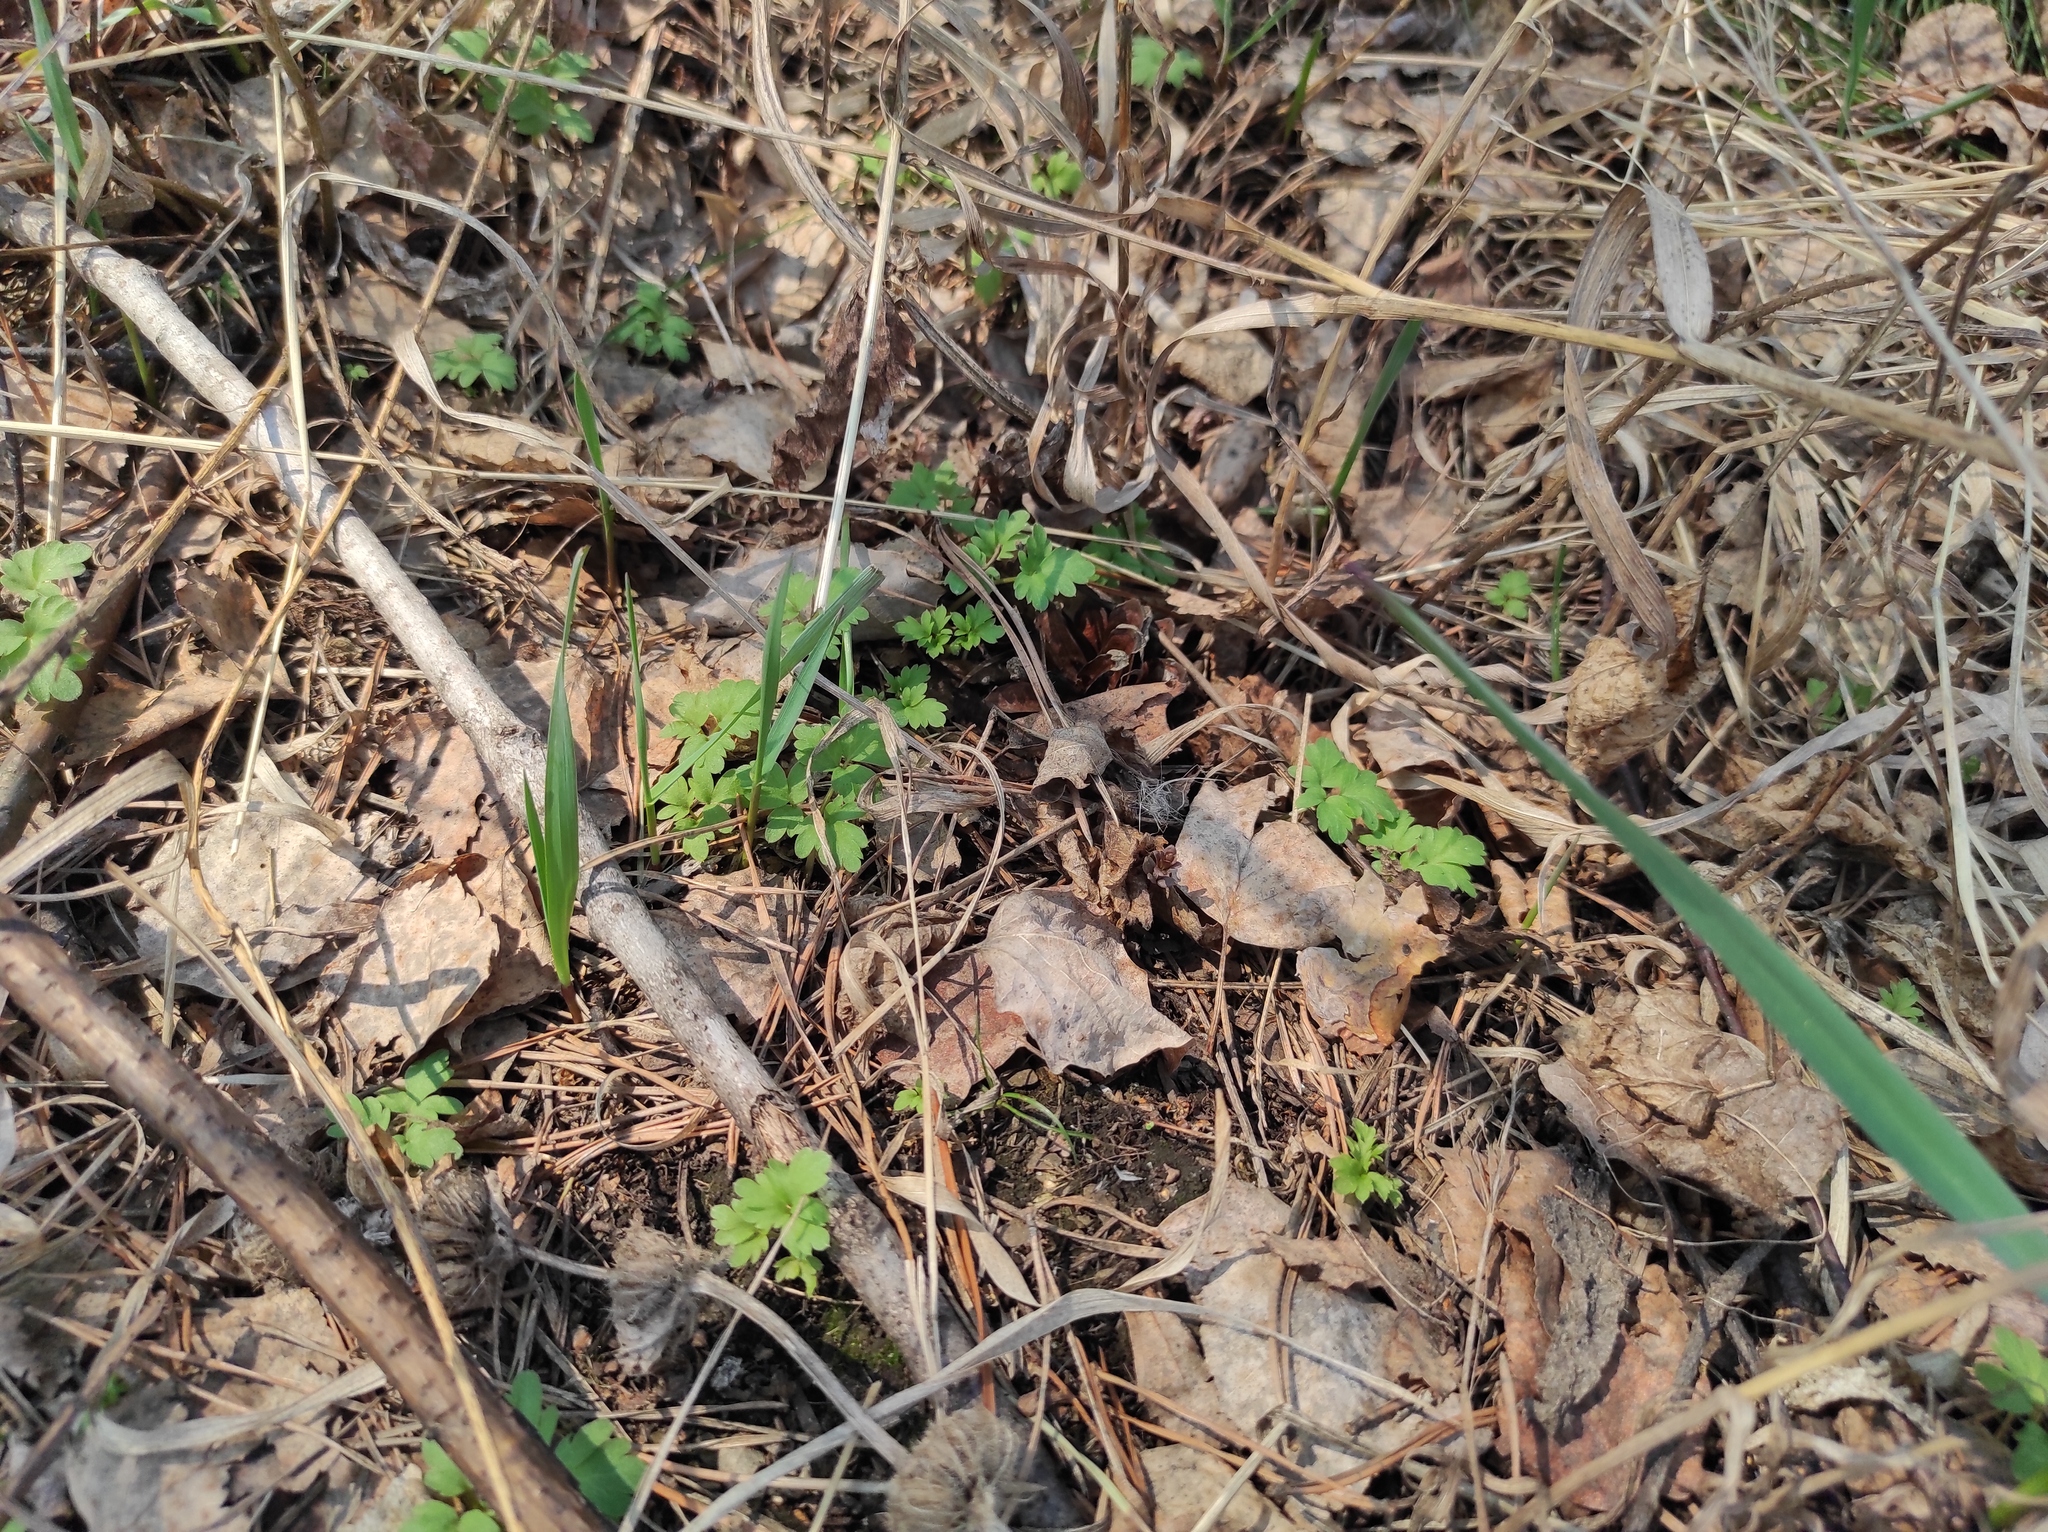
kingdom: Plantae
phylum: Tracheophyta
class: Magnoliopsida
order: Dipsacales
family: Viburnaceae
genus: Adoxa
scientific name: Adoxa moschatellina
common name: Moschatel
